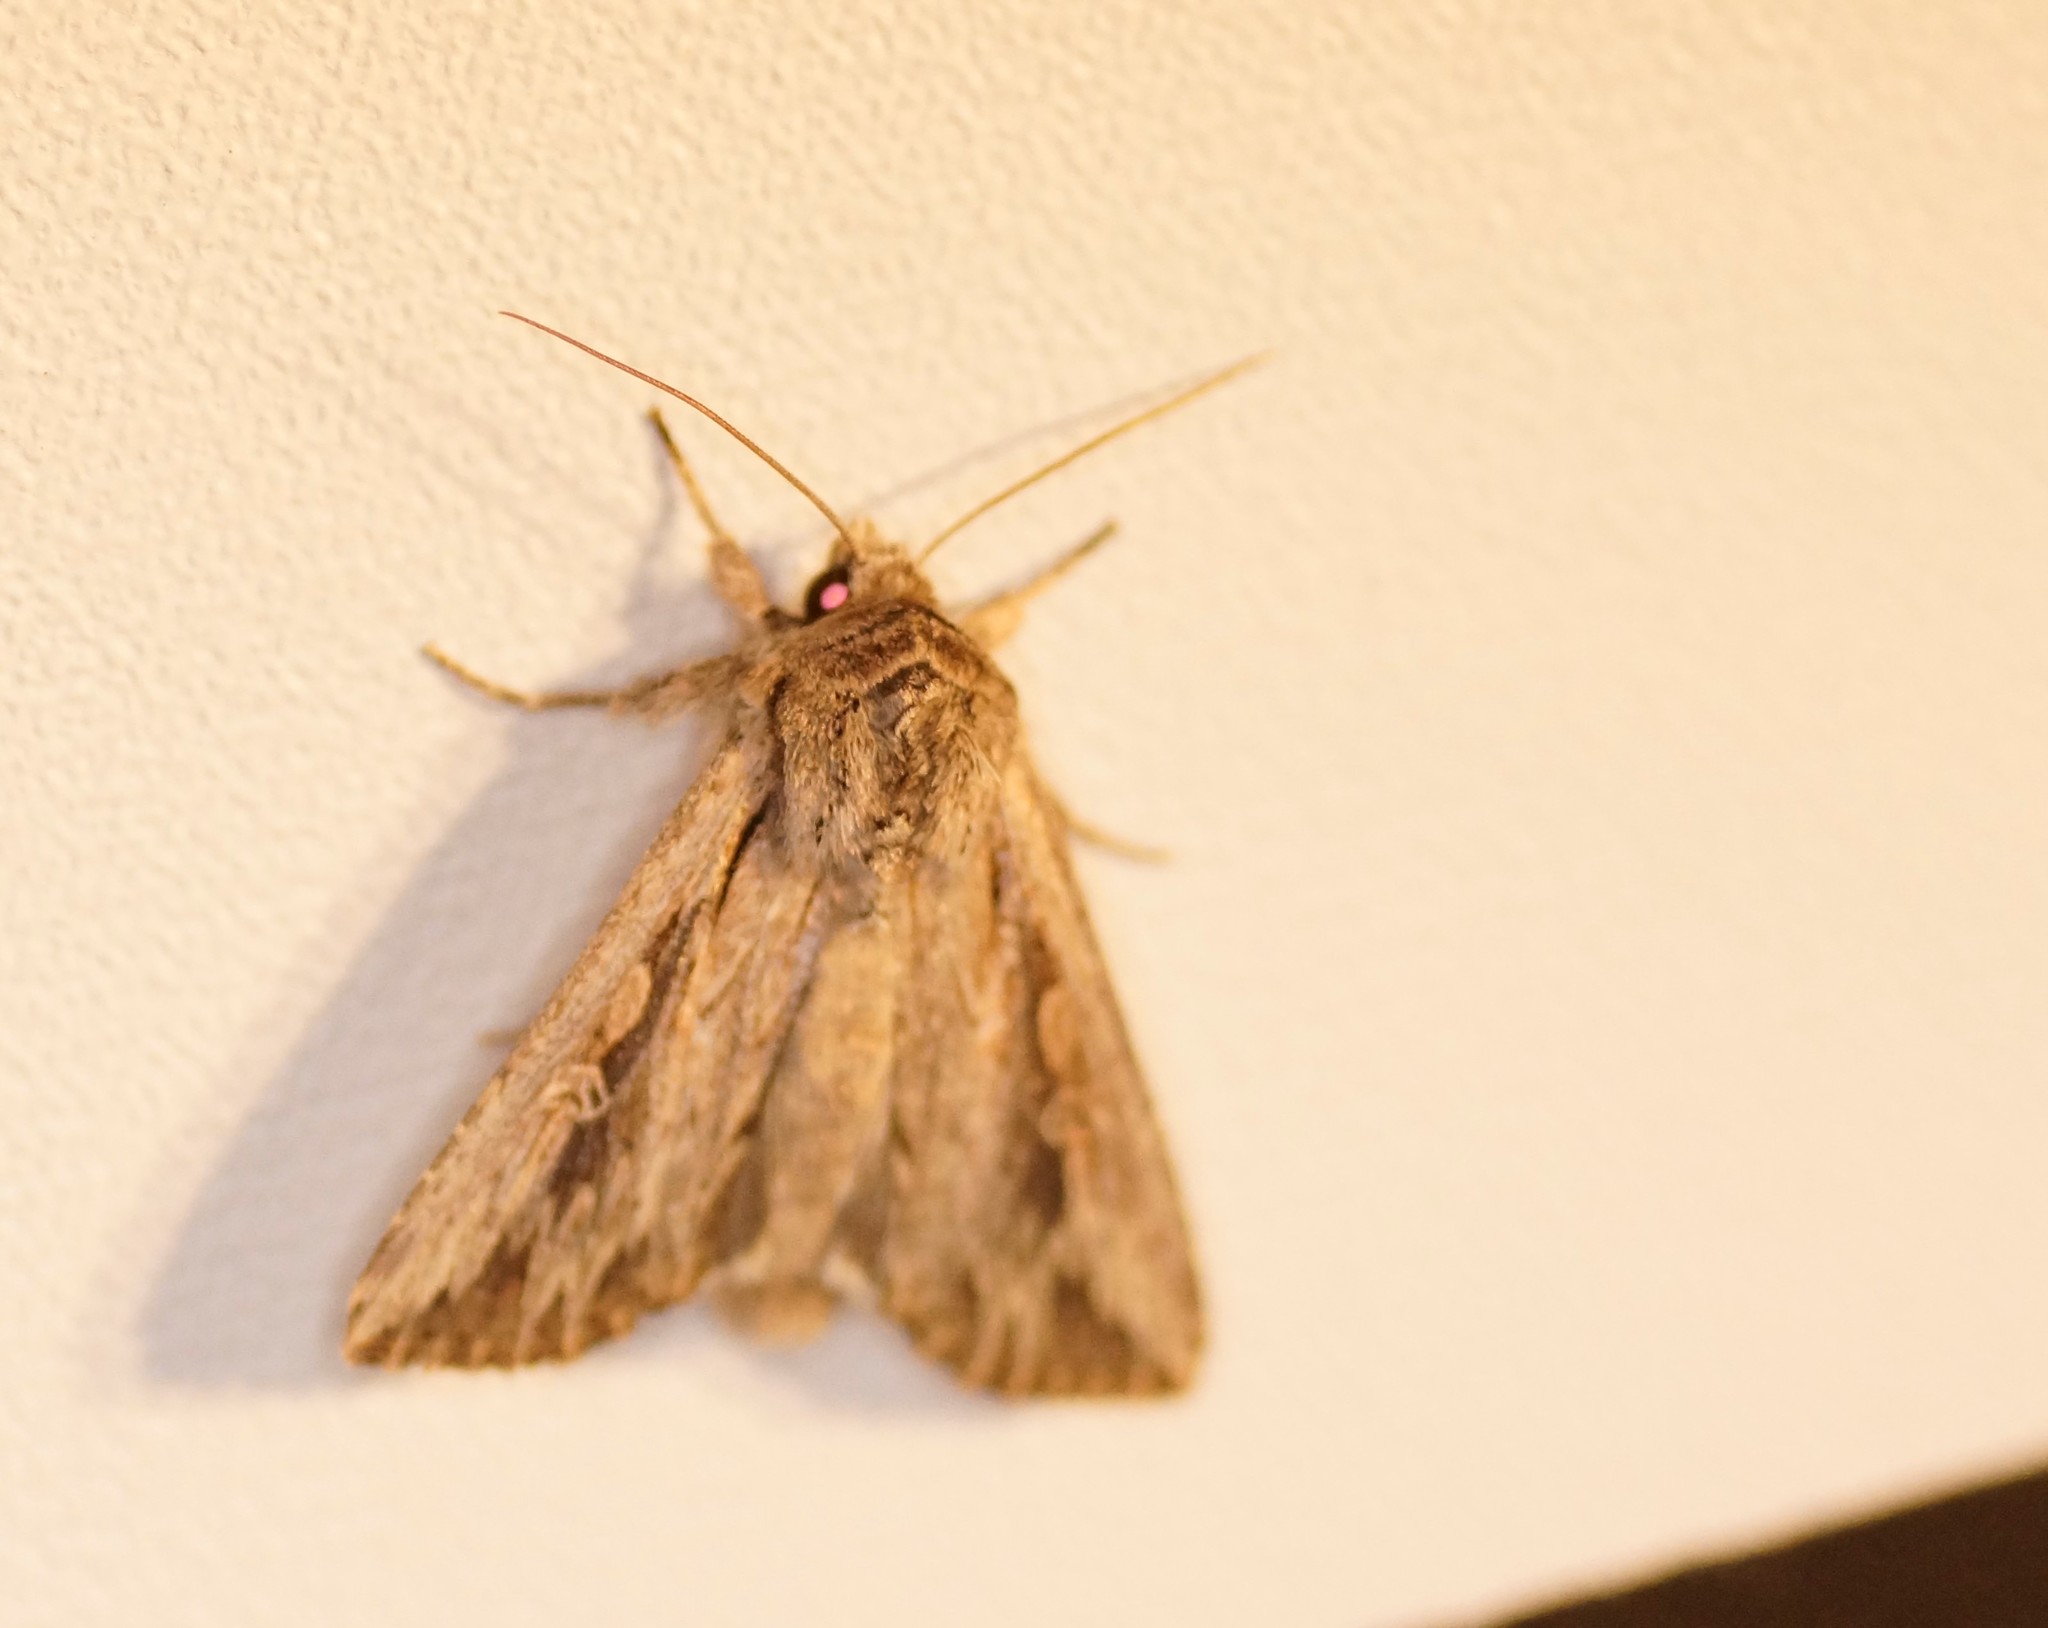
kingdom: Animalia
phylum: Arthropoda
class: Insecta
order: Lepidoptera
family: Noctuidae
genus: Persectania
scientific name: Persectania ewingii
